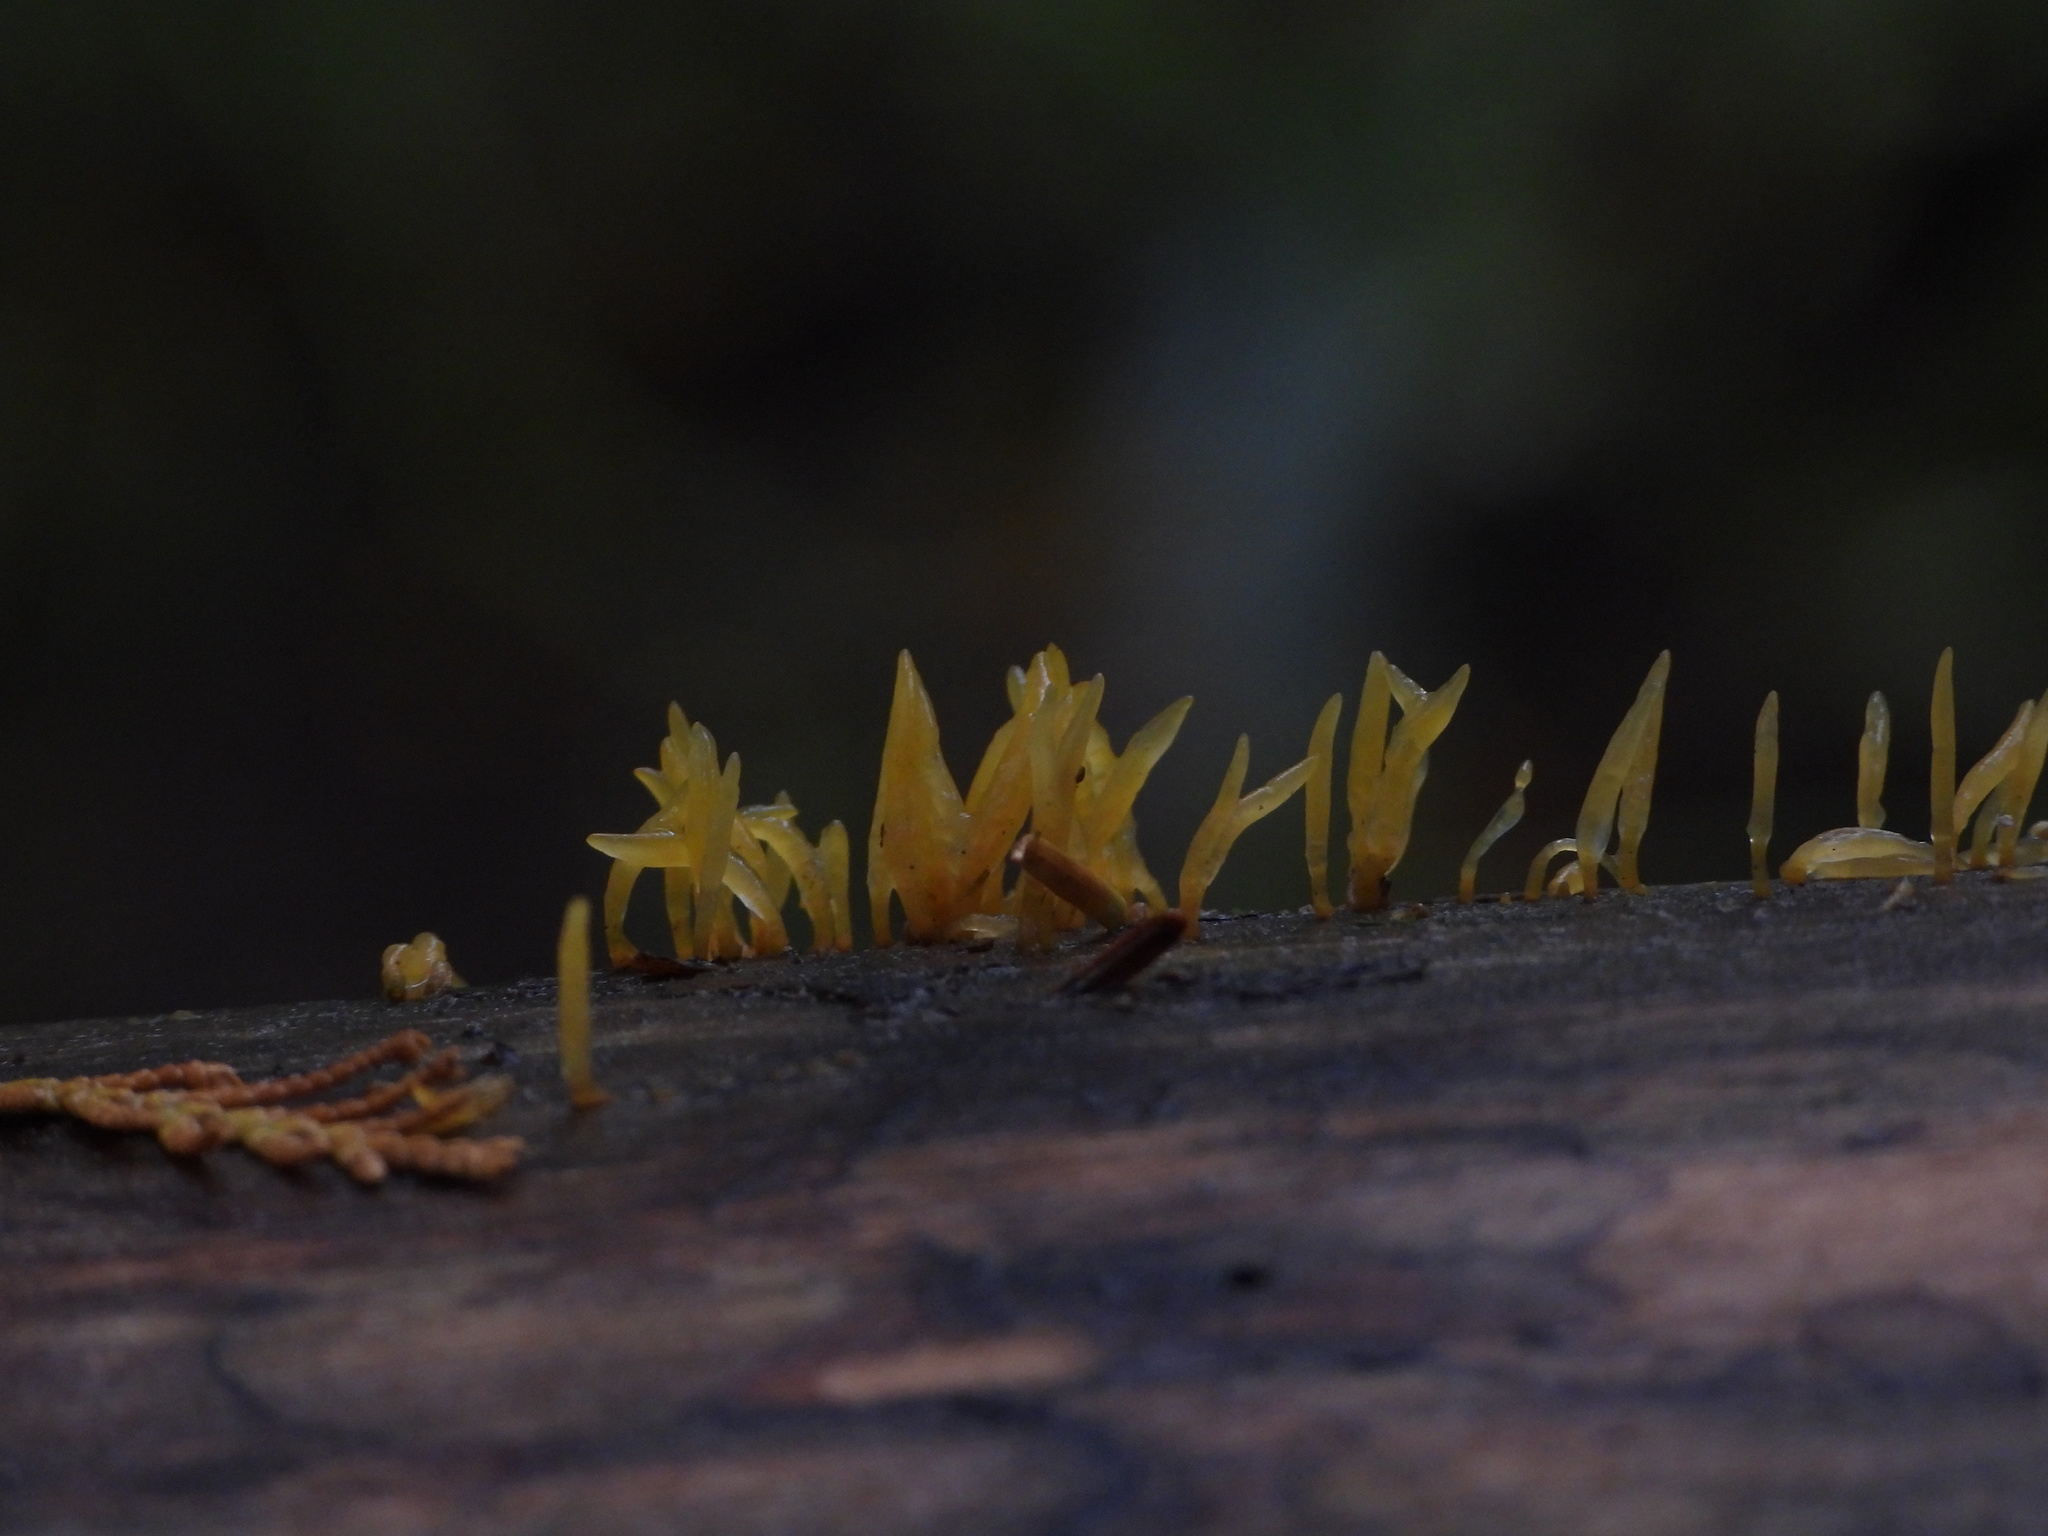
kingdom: Fungi
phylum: Basidiomycota
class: Dacrymycetes
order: Dacrymycetales
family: Dacrymycetaceae
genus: Calocera
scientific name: Calocera cornea
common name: Small stagshorn
